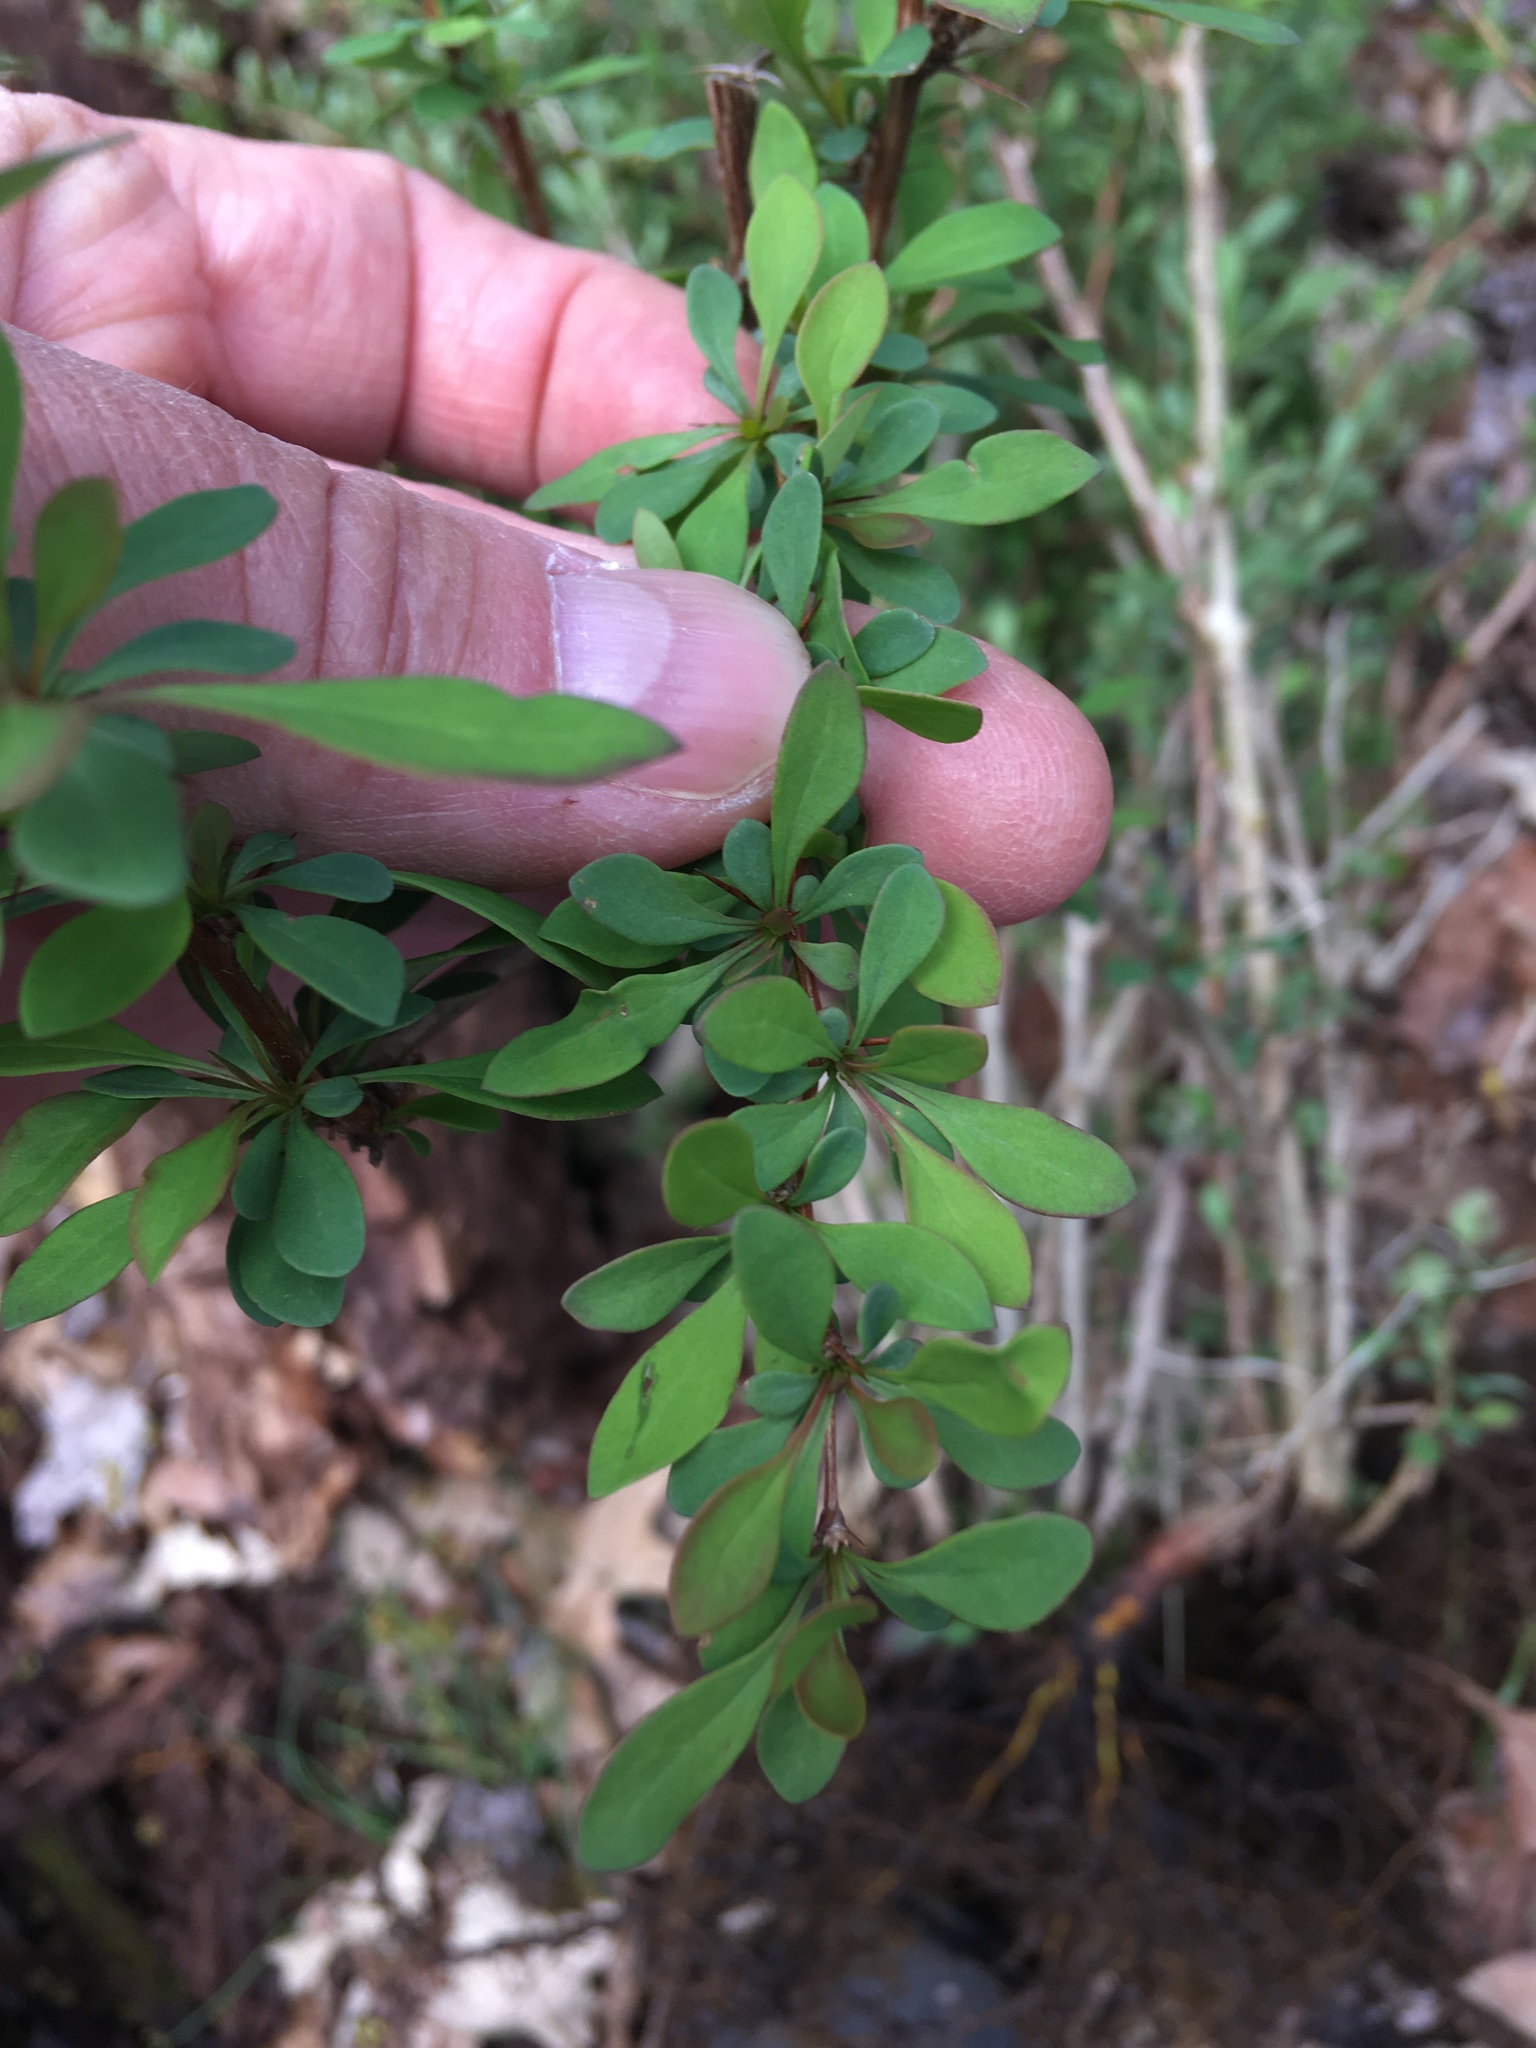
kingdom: Plantae
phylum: Tracheophyta
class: Magnoliopsida
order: Ranunculales
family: Berberidaceae
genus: Berberis
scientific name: Berberis thunbergii
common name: Japanese barberry
